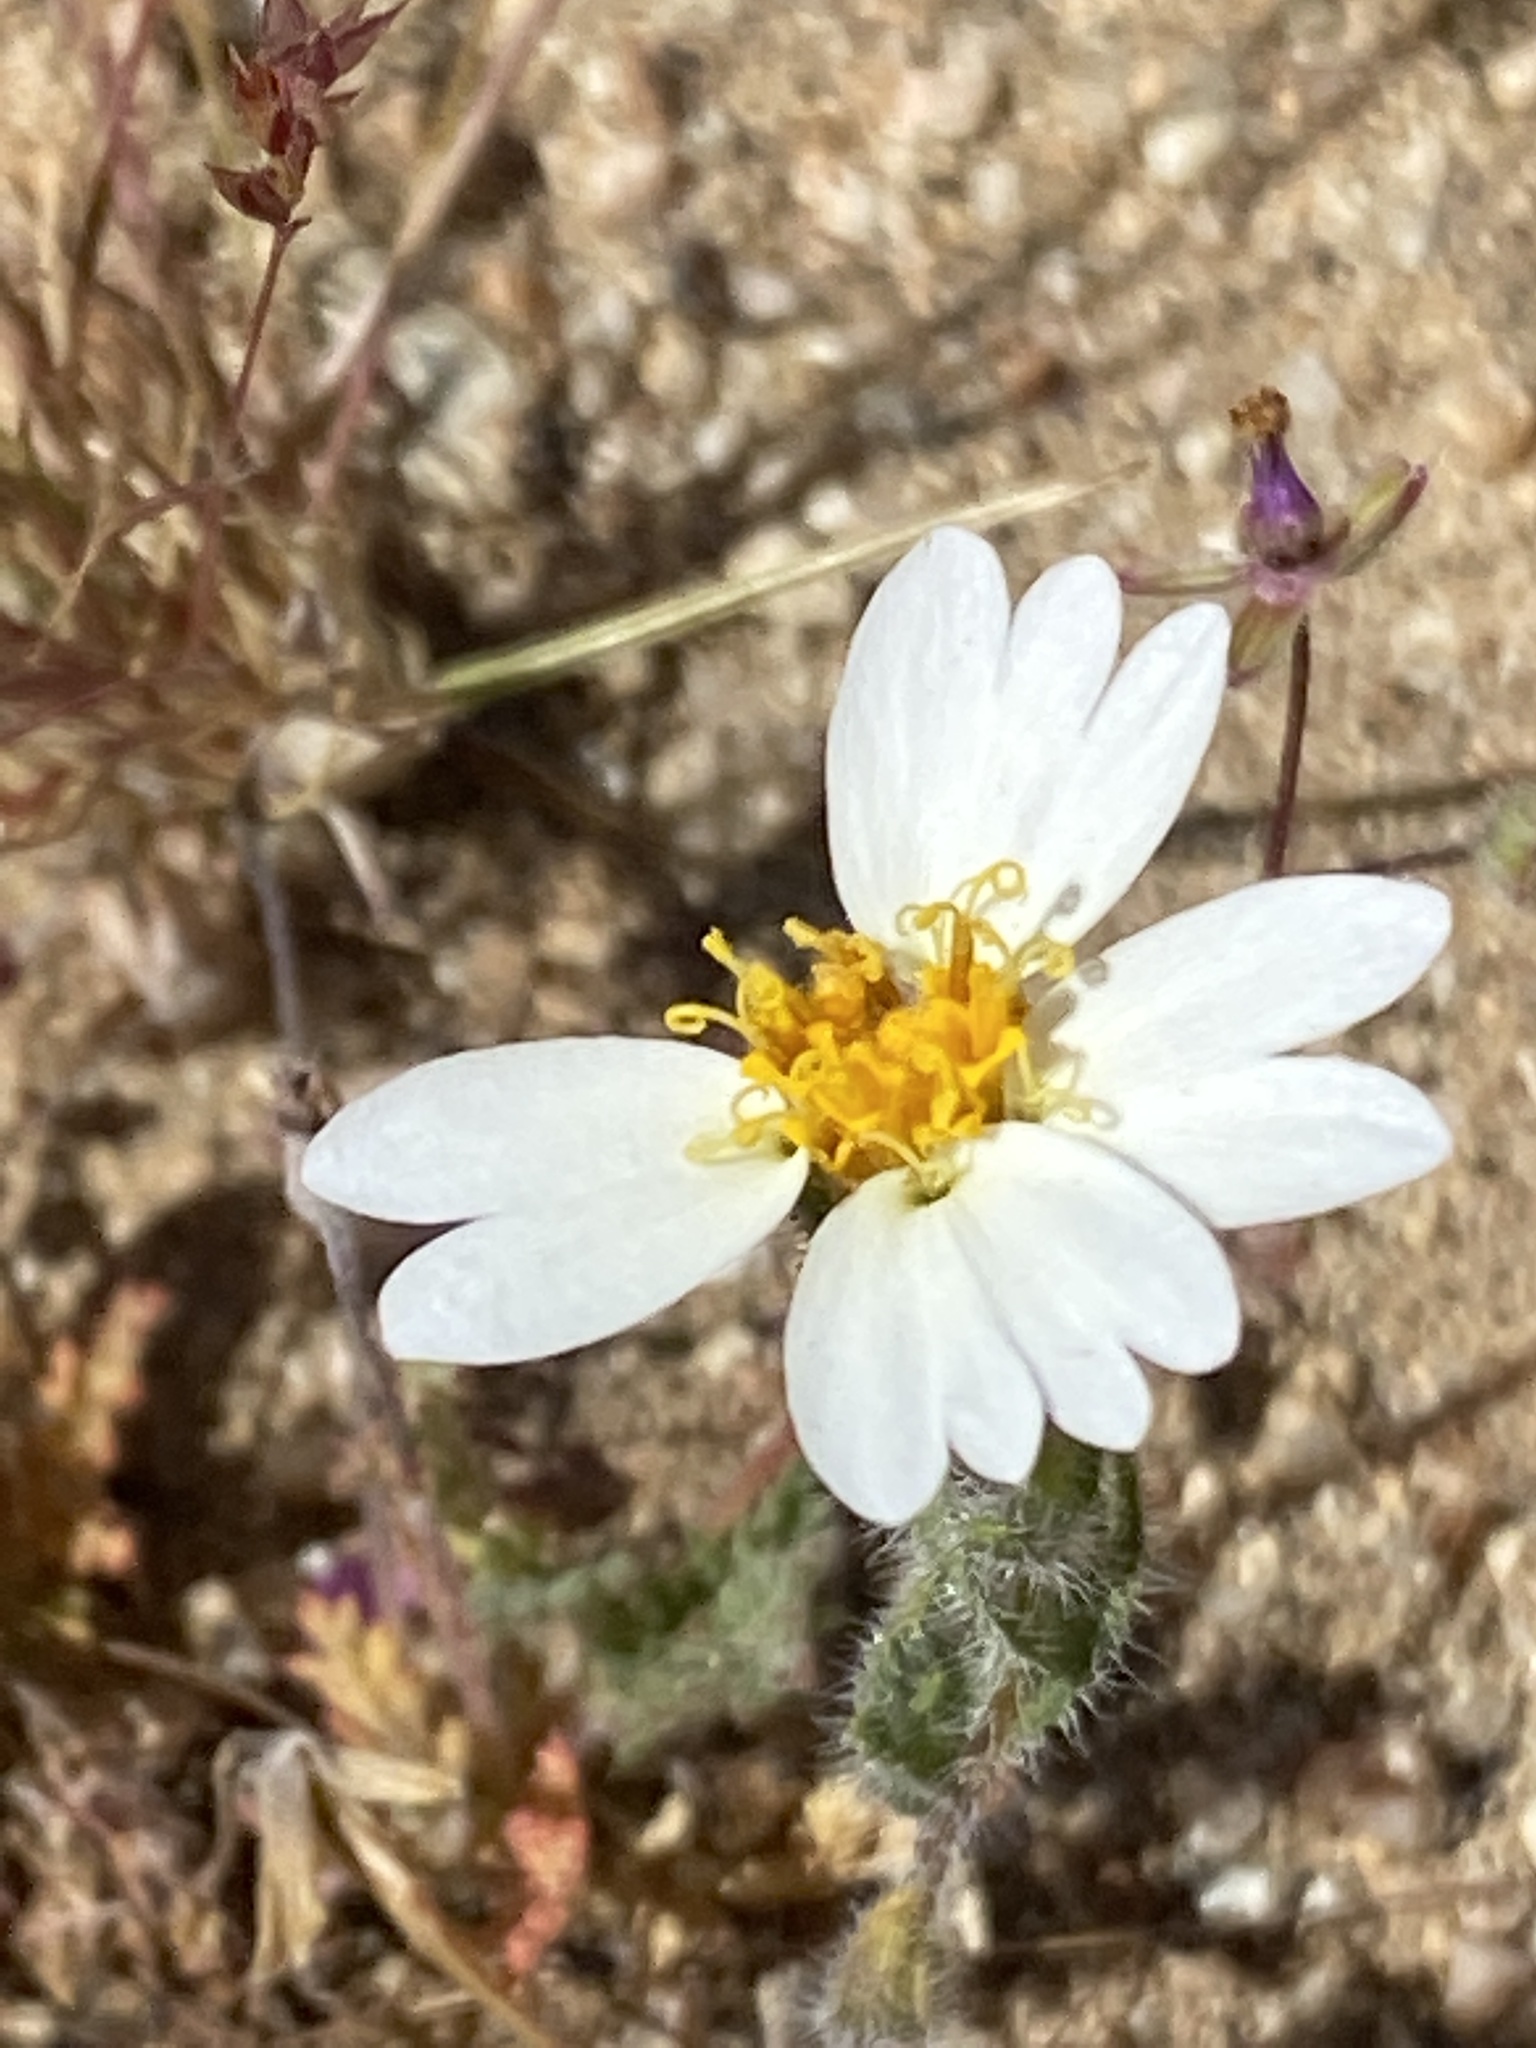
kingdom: Plantae
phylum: Tracheophyta
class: Magnoliopsida
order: Asterales
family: Asteraceae
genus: Layia
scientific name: Layia glandulosa
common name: White layia
